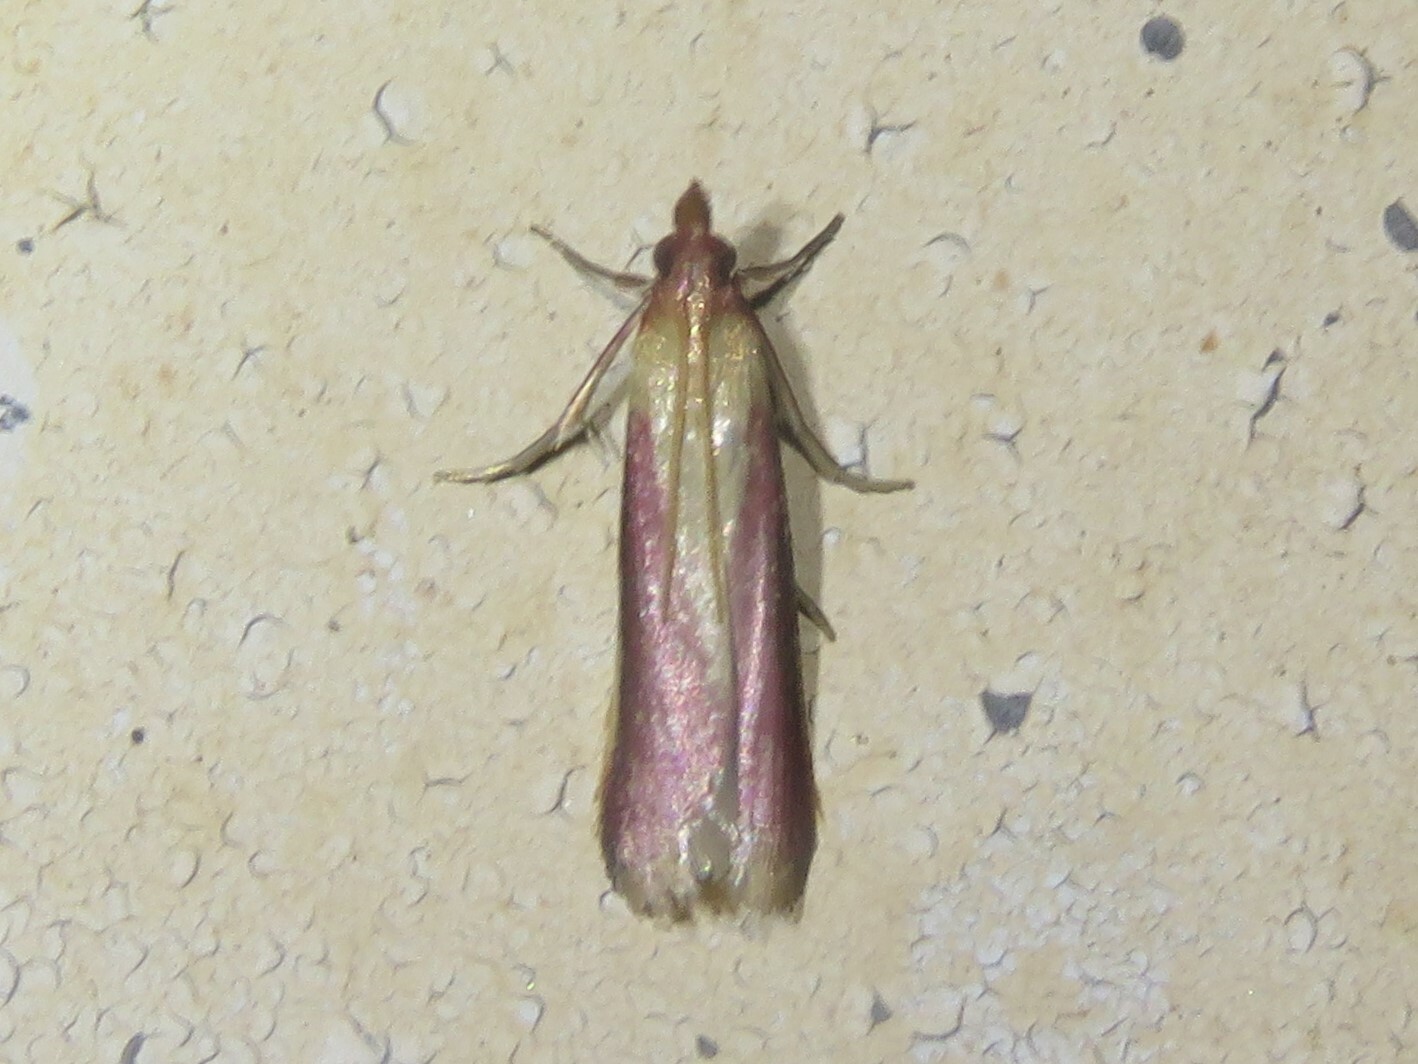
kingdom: Animalia
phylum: Arthropoda
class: Insecta
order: Lepidoptera
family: Pyralidae
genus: Peoria
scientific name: Peoria approximella
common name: Carmine snout
